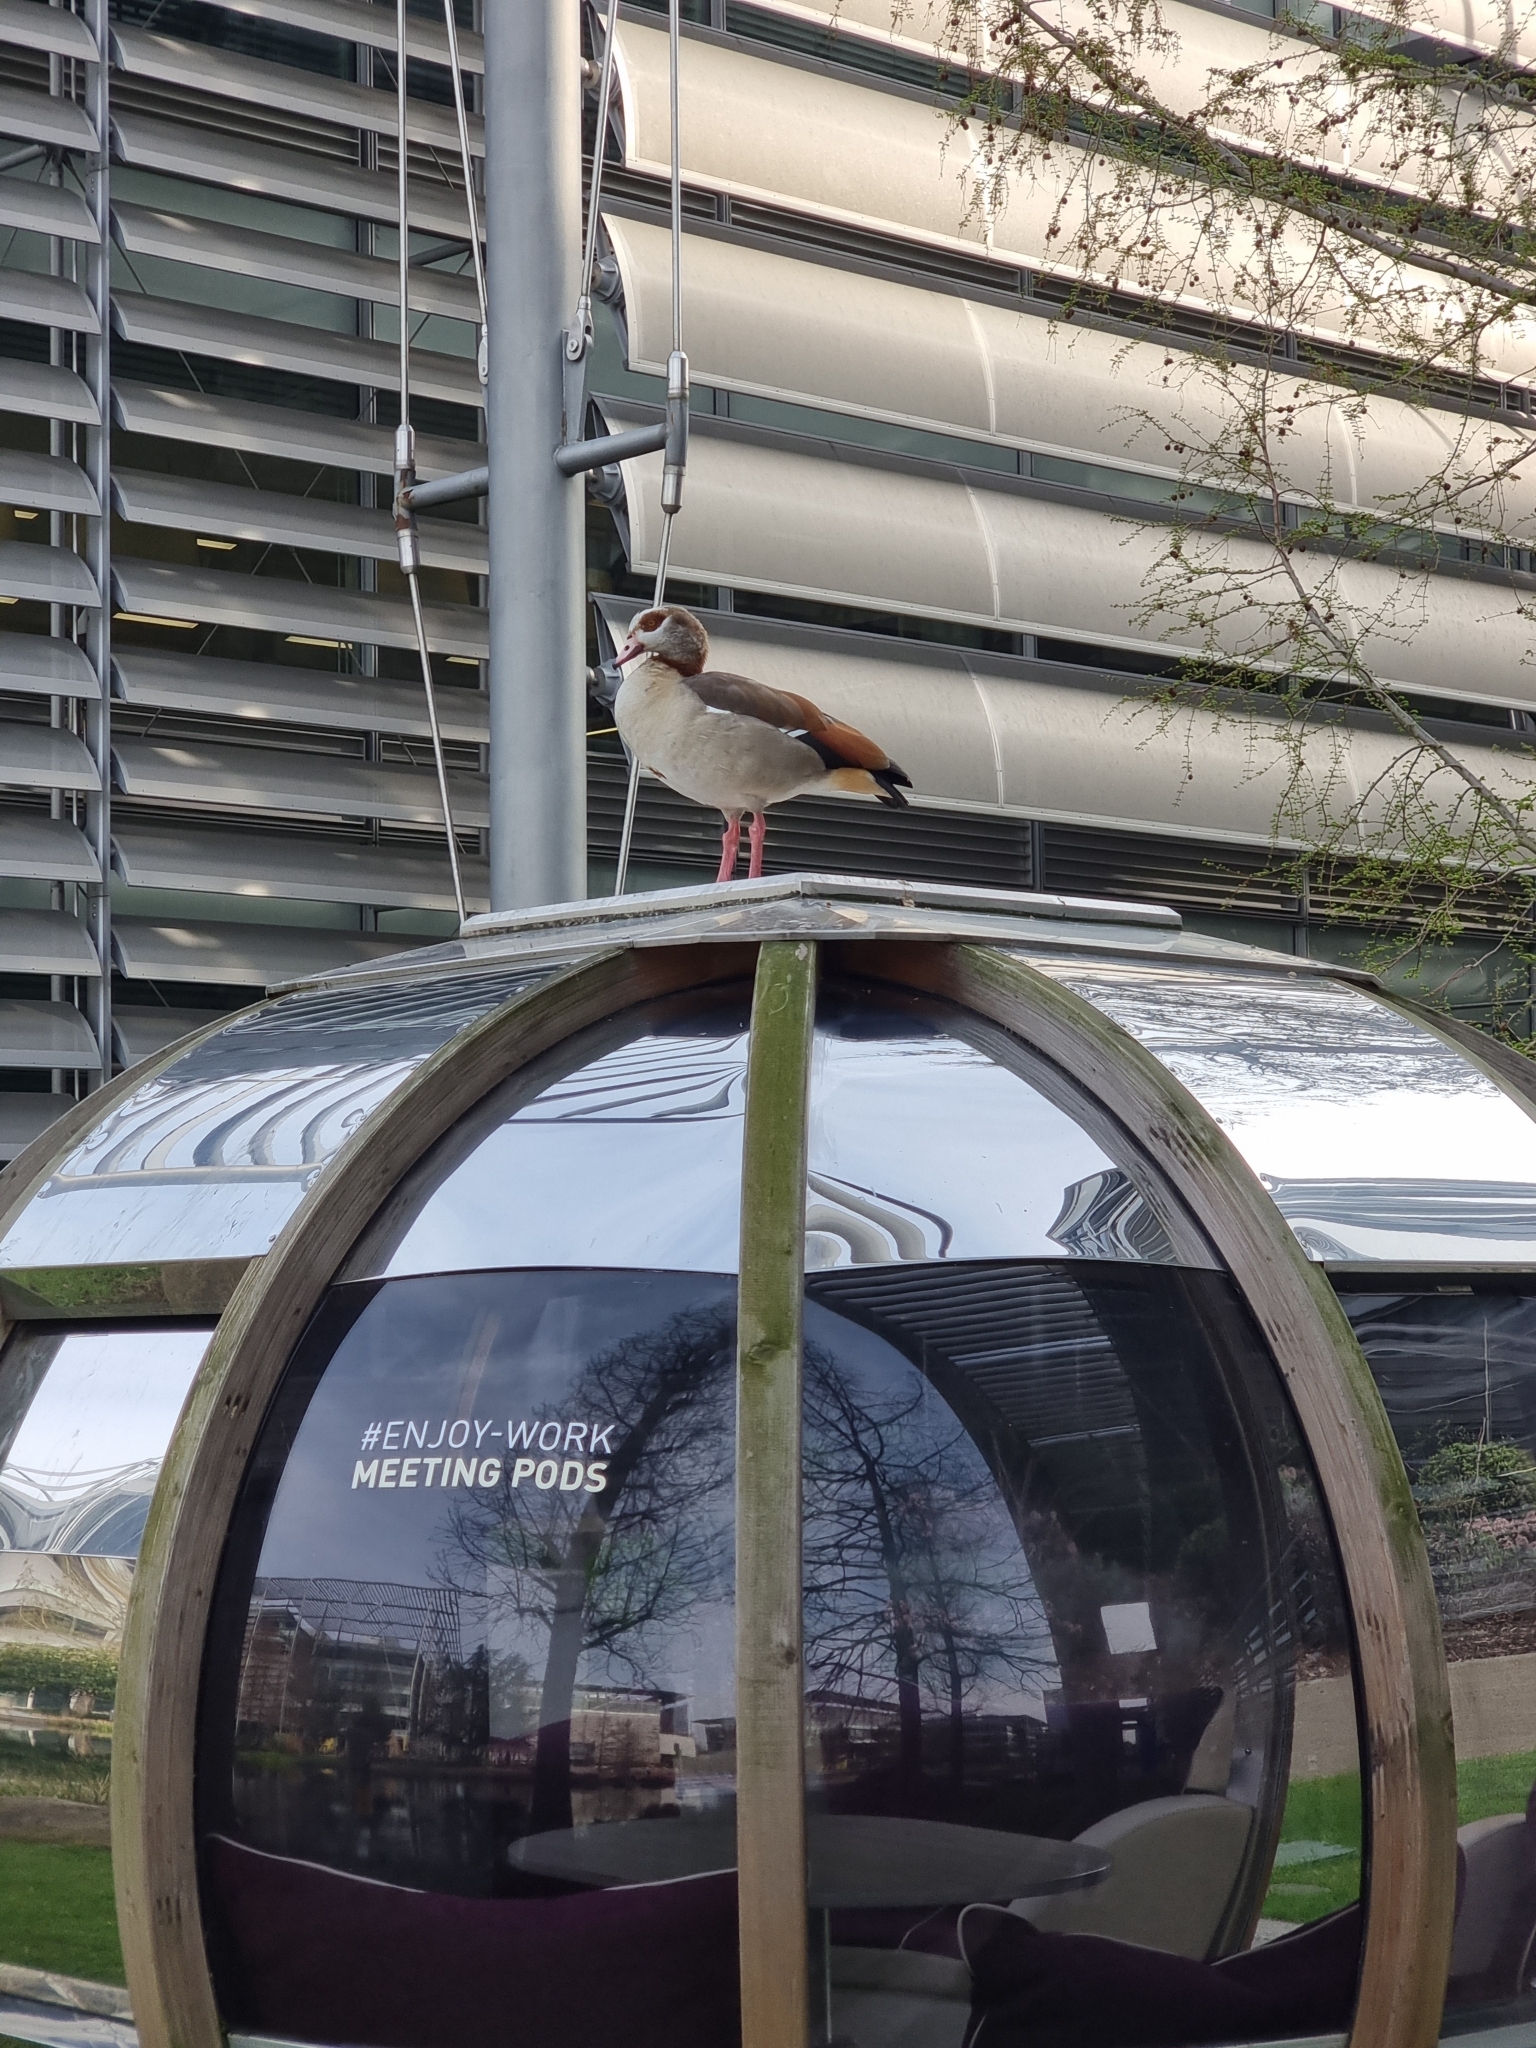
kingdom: Animalia
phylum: Chordata
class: Aves
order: Anseriformes
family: Anatidae
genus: Alopochen
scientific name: Alopochen aegyptiaca
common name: Egyptian goose
